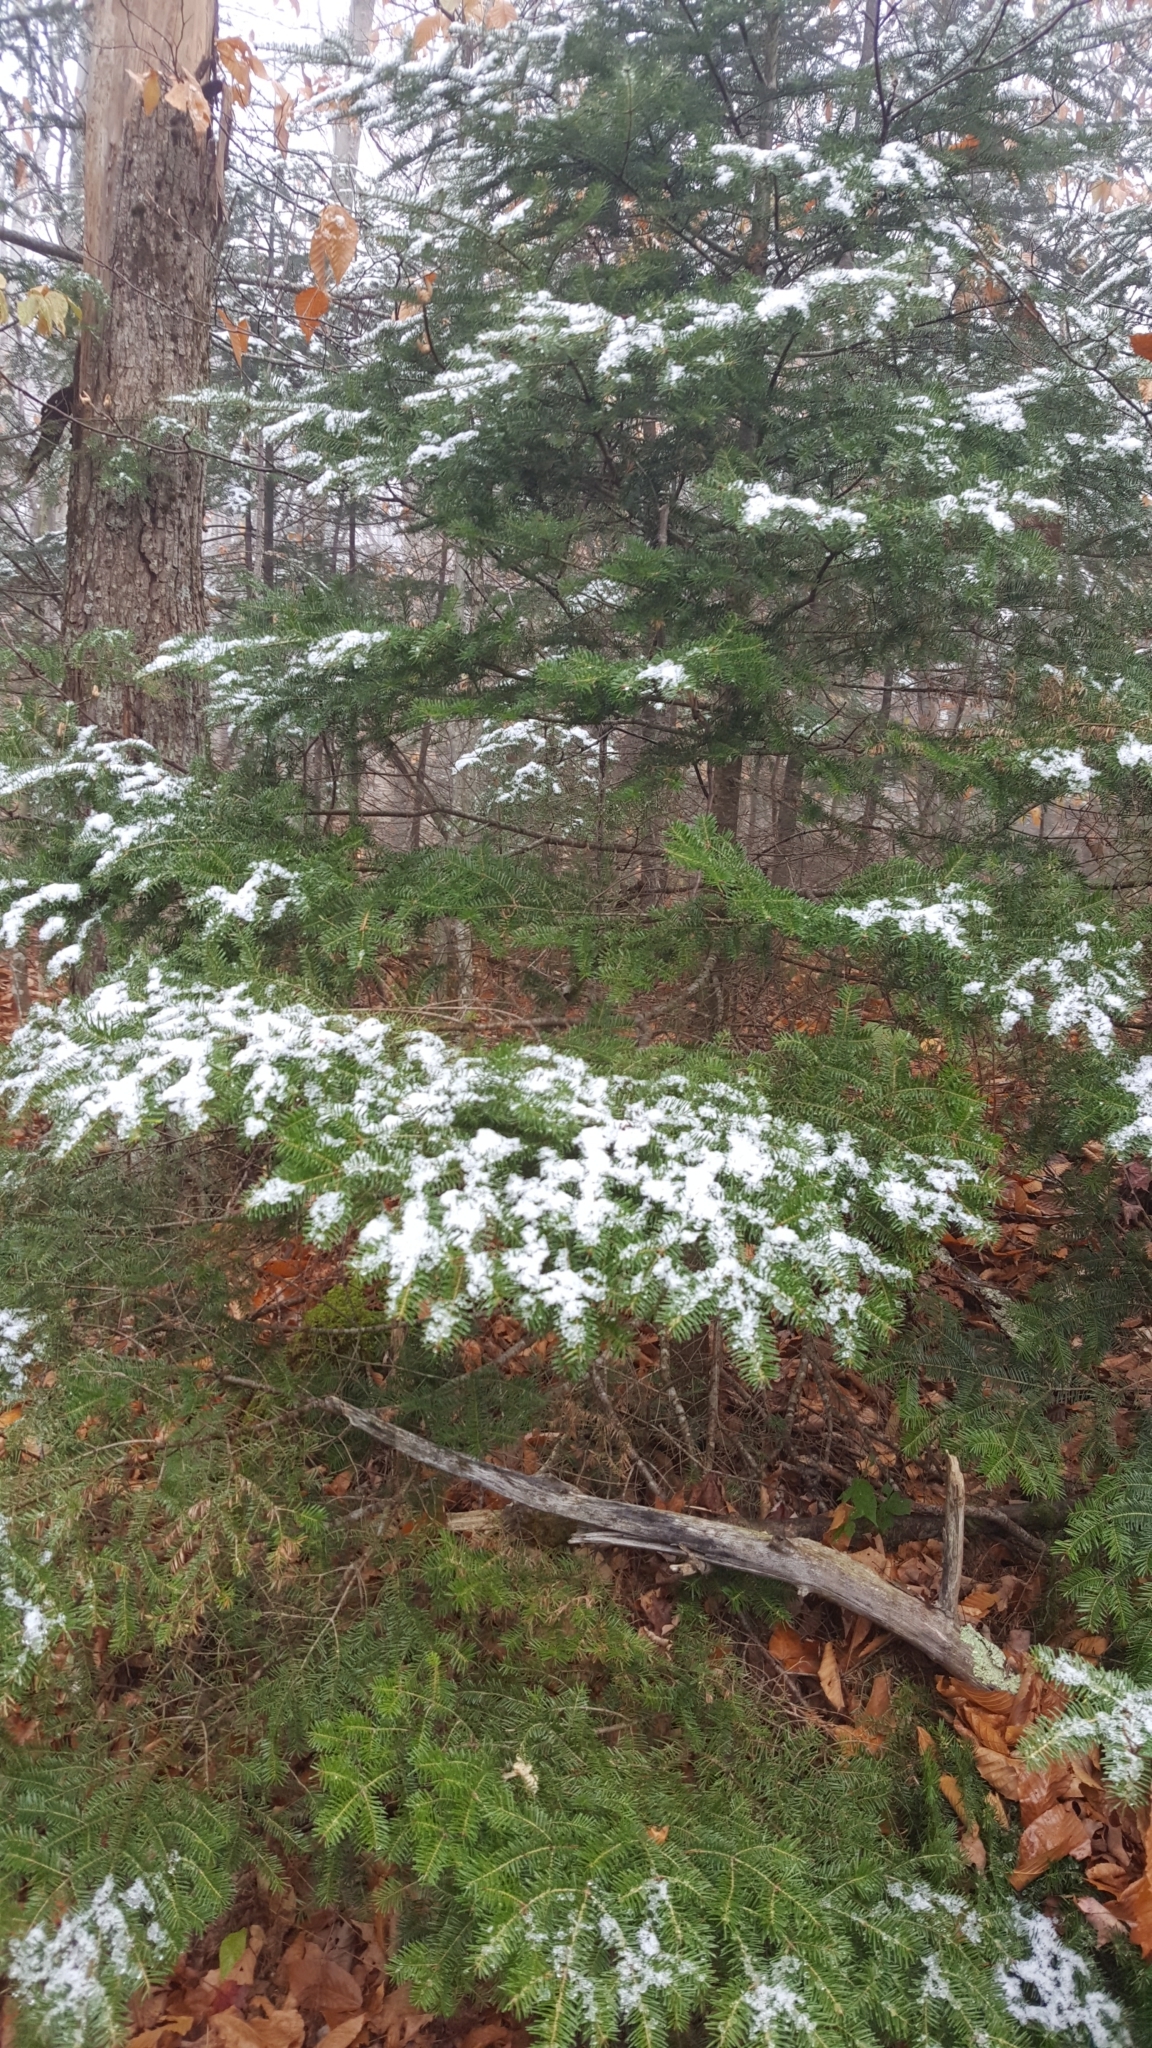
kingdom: Plantae
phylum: Tracheophyta
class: Pinopsida
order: Pinales
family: Pinaceae
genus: Abies
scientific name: Abies balsamea
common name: Balsam fir
